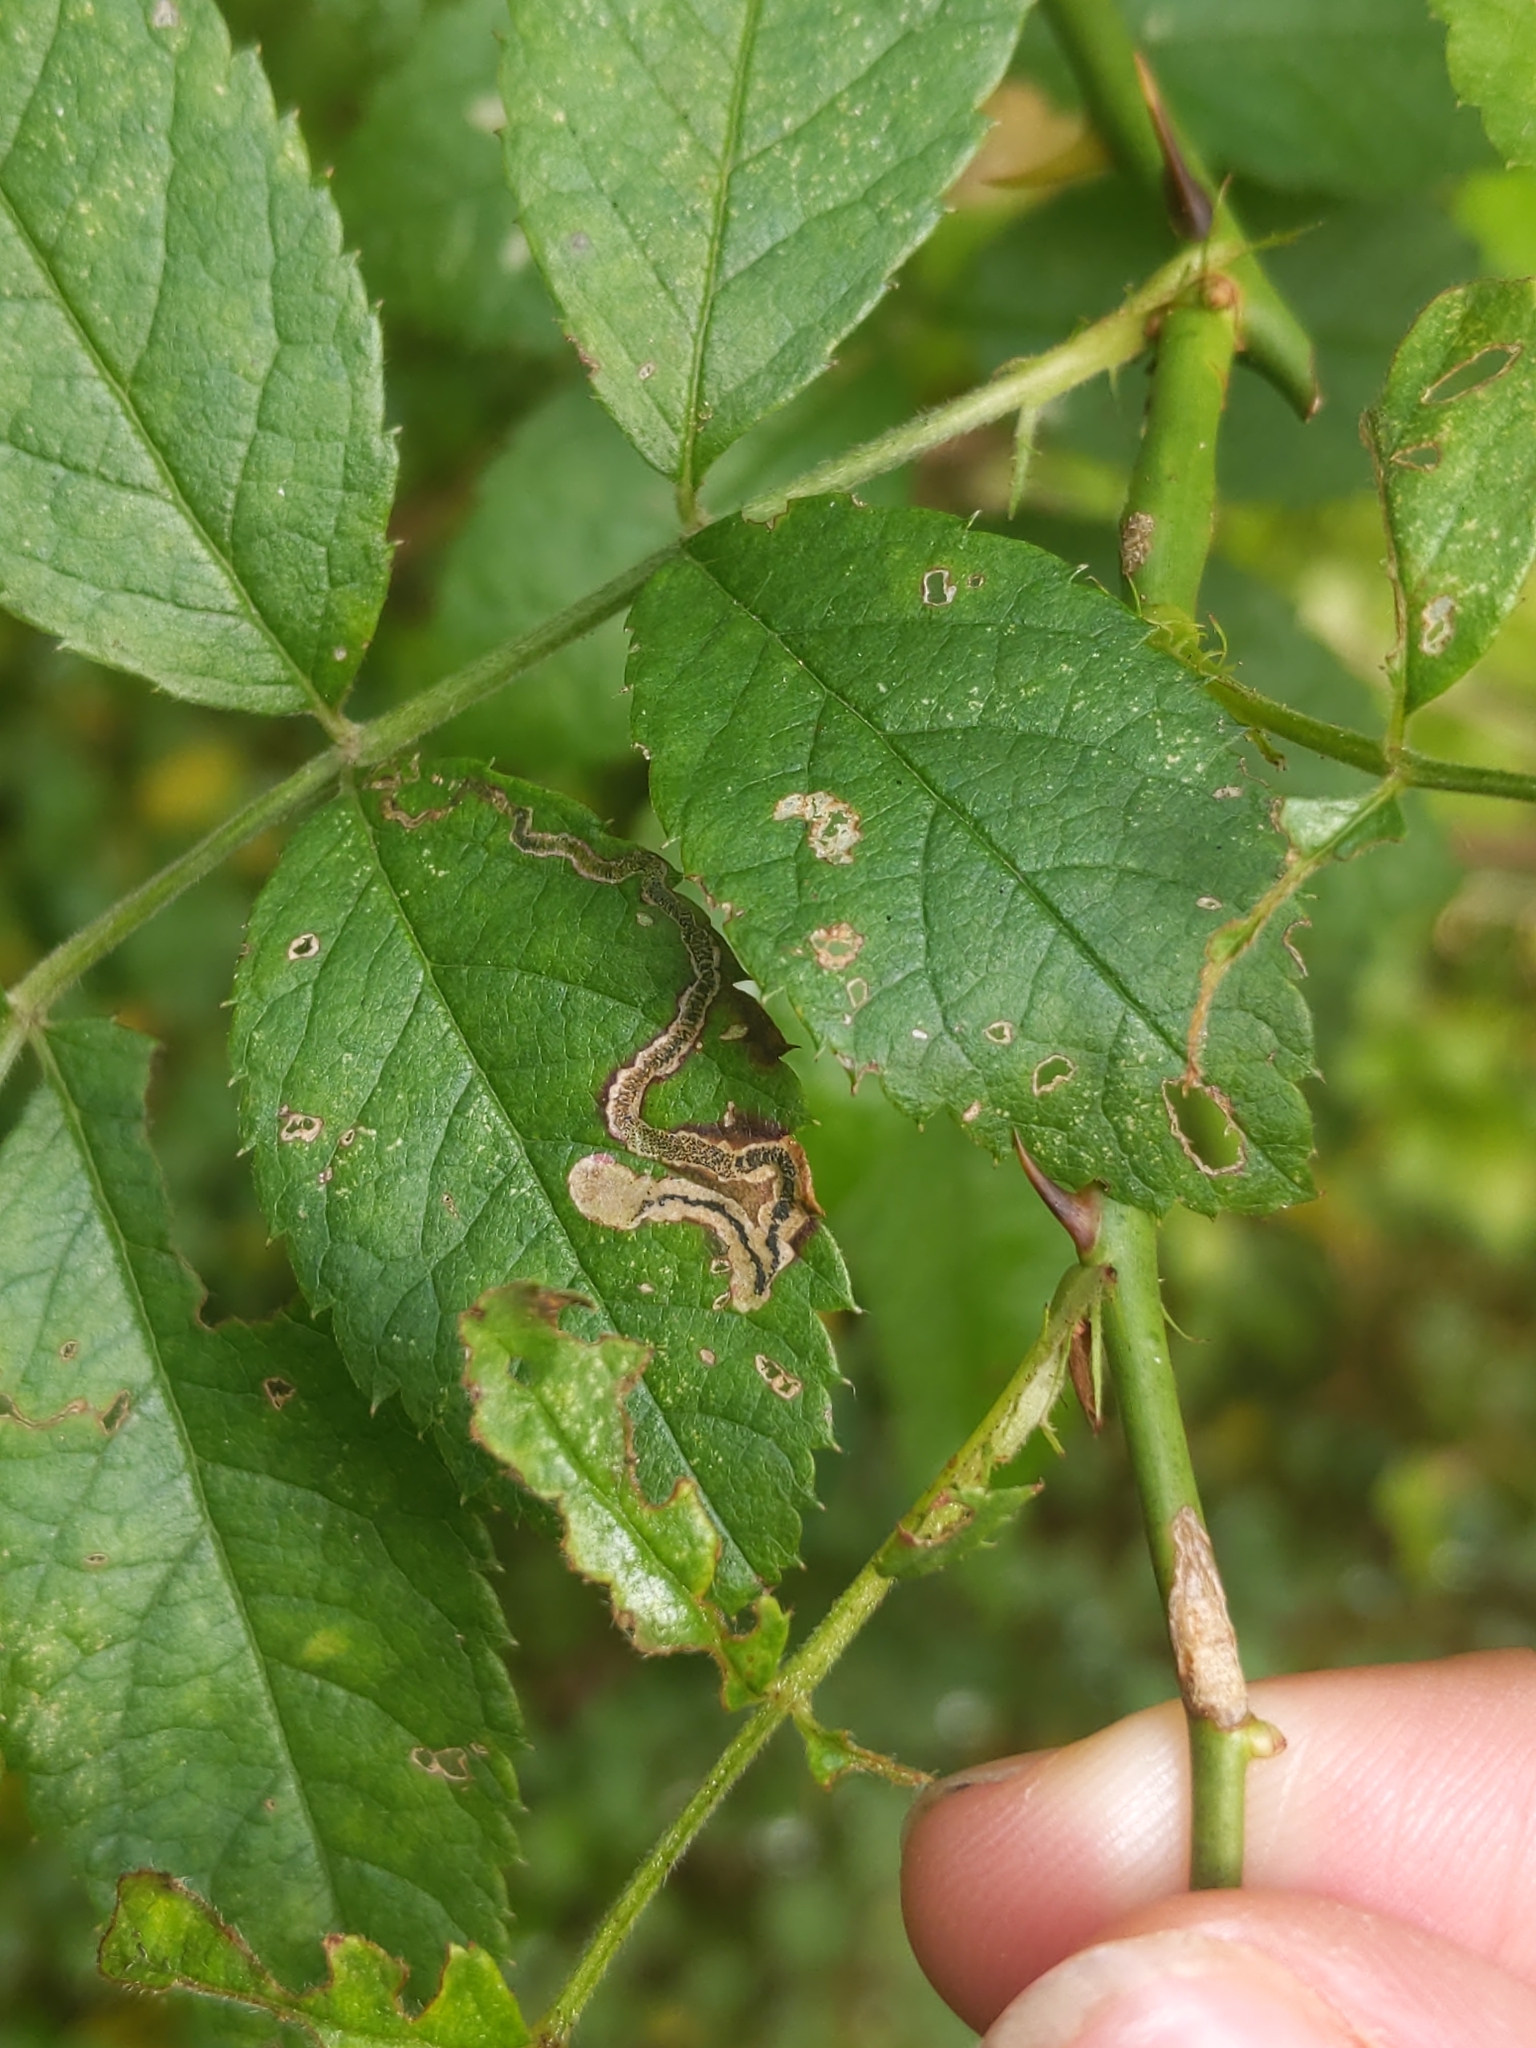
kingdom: Animalia
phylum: Arthropoda
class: Insecta
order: Lepidoptera
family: Nepticulidae
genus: Stigmella
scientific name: Stigmella rosaefoliella
